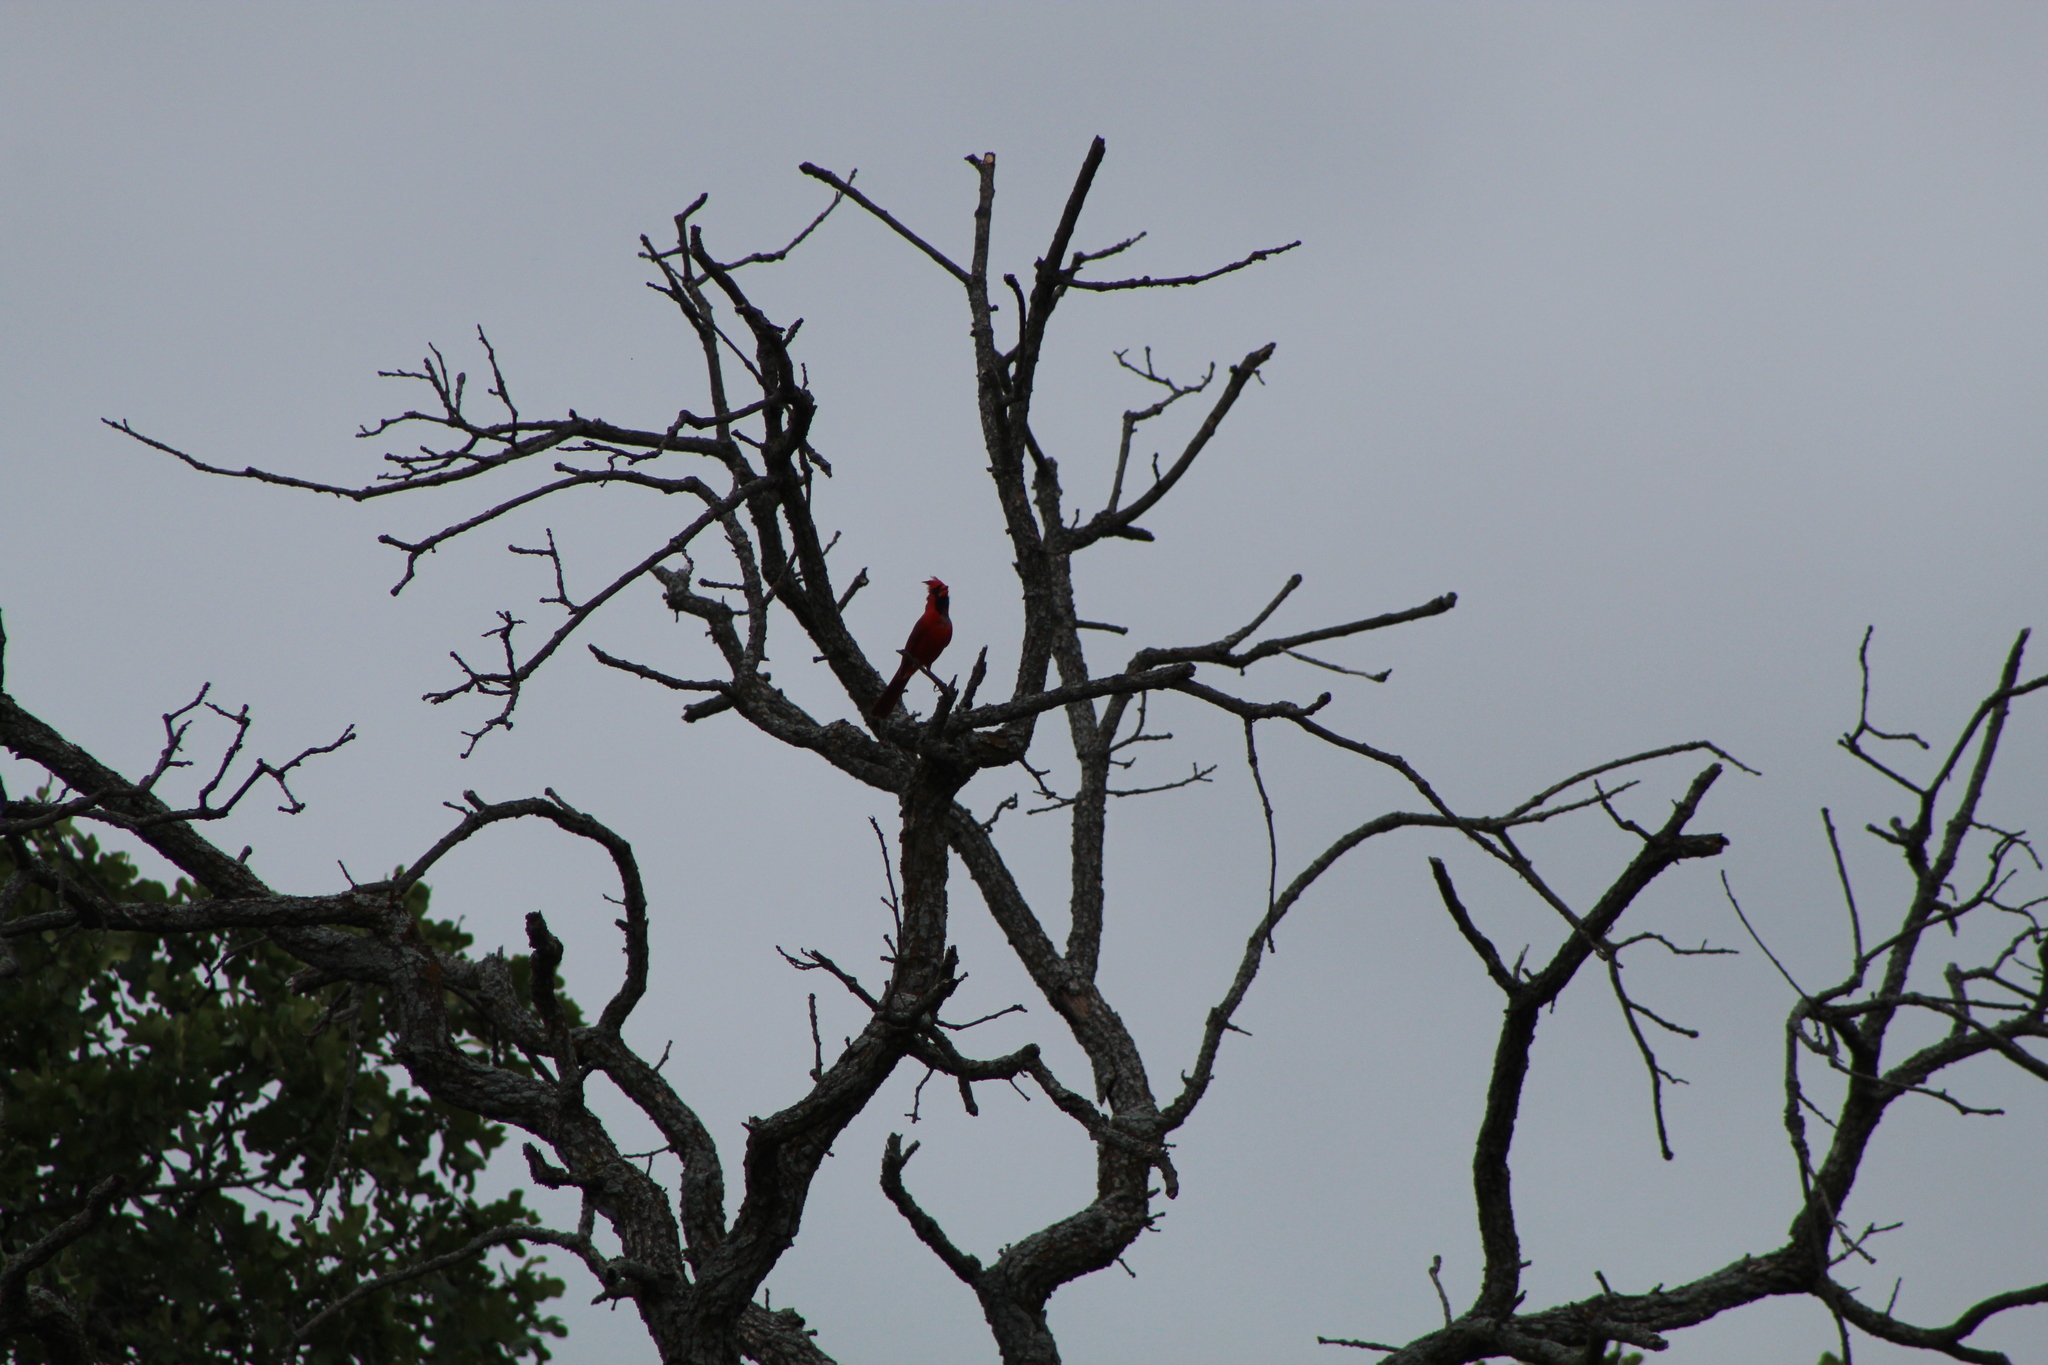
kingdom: Animalia
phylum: Chordata
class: Aves
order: Passeriformes
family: Cardinalidae
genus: Cardinalis
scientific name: Cardinalis cardinalis
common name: Northern cardinal
